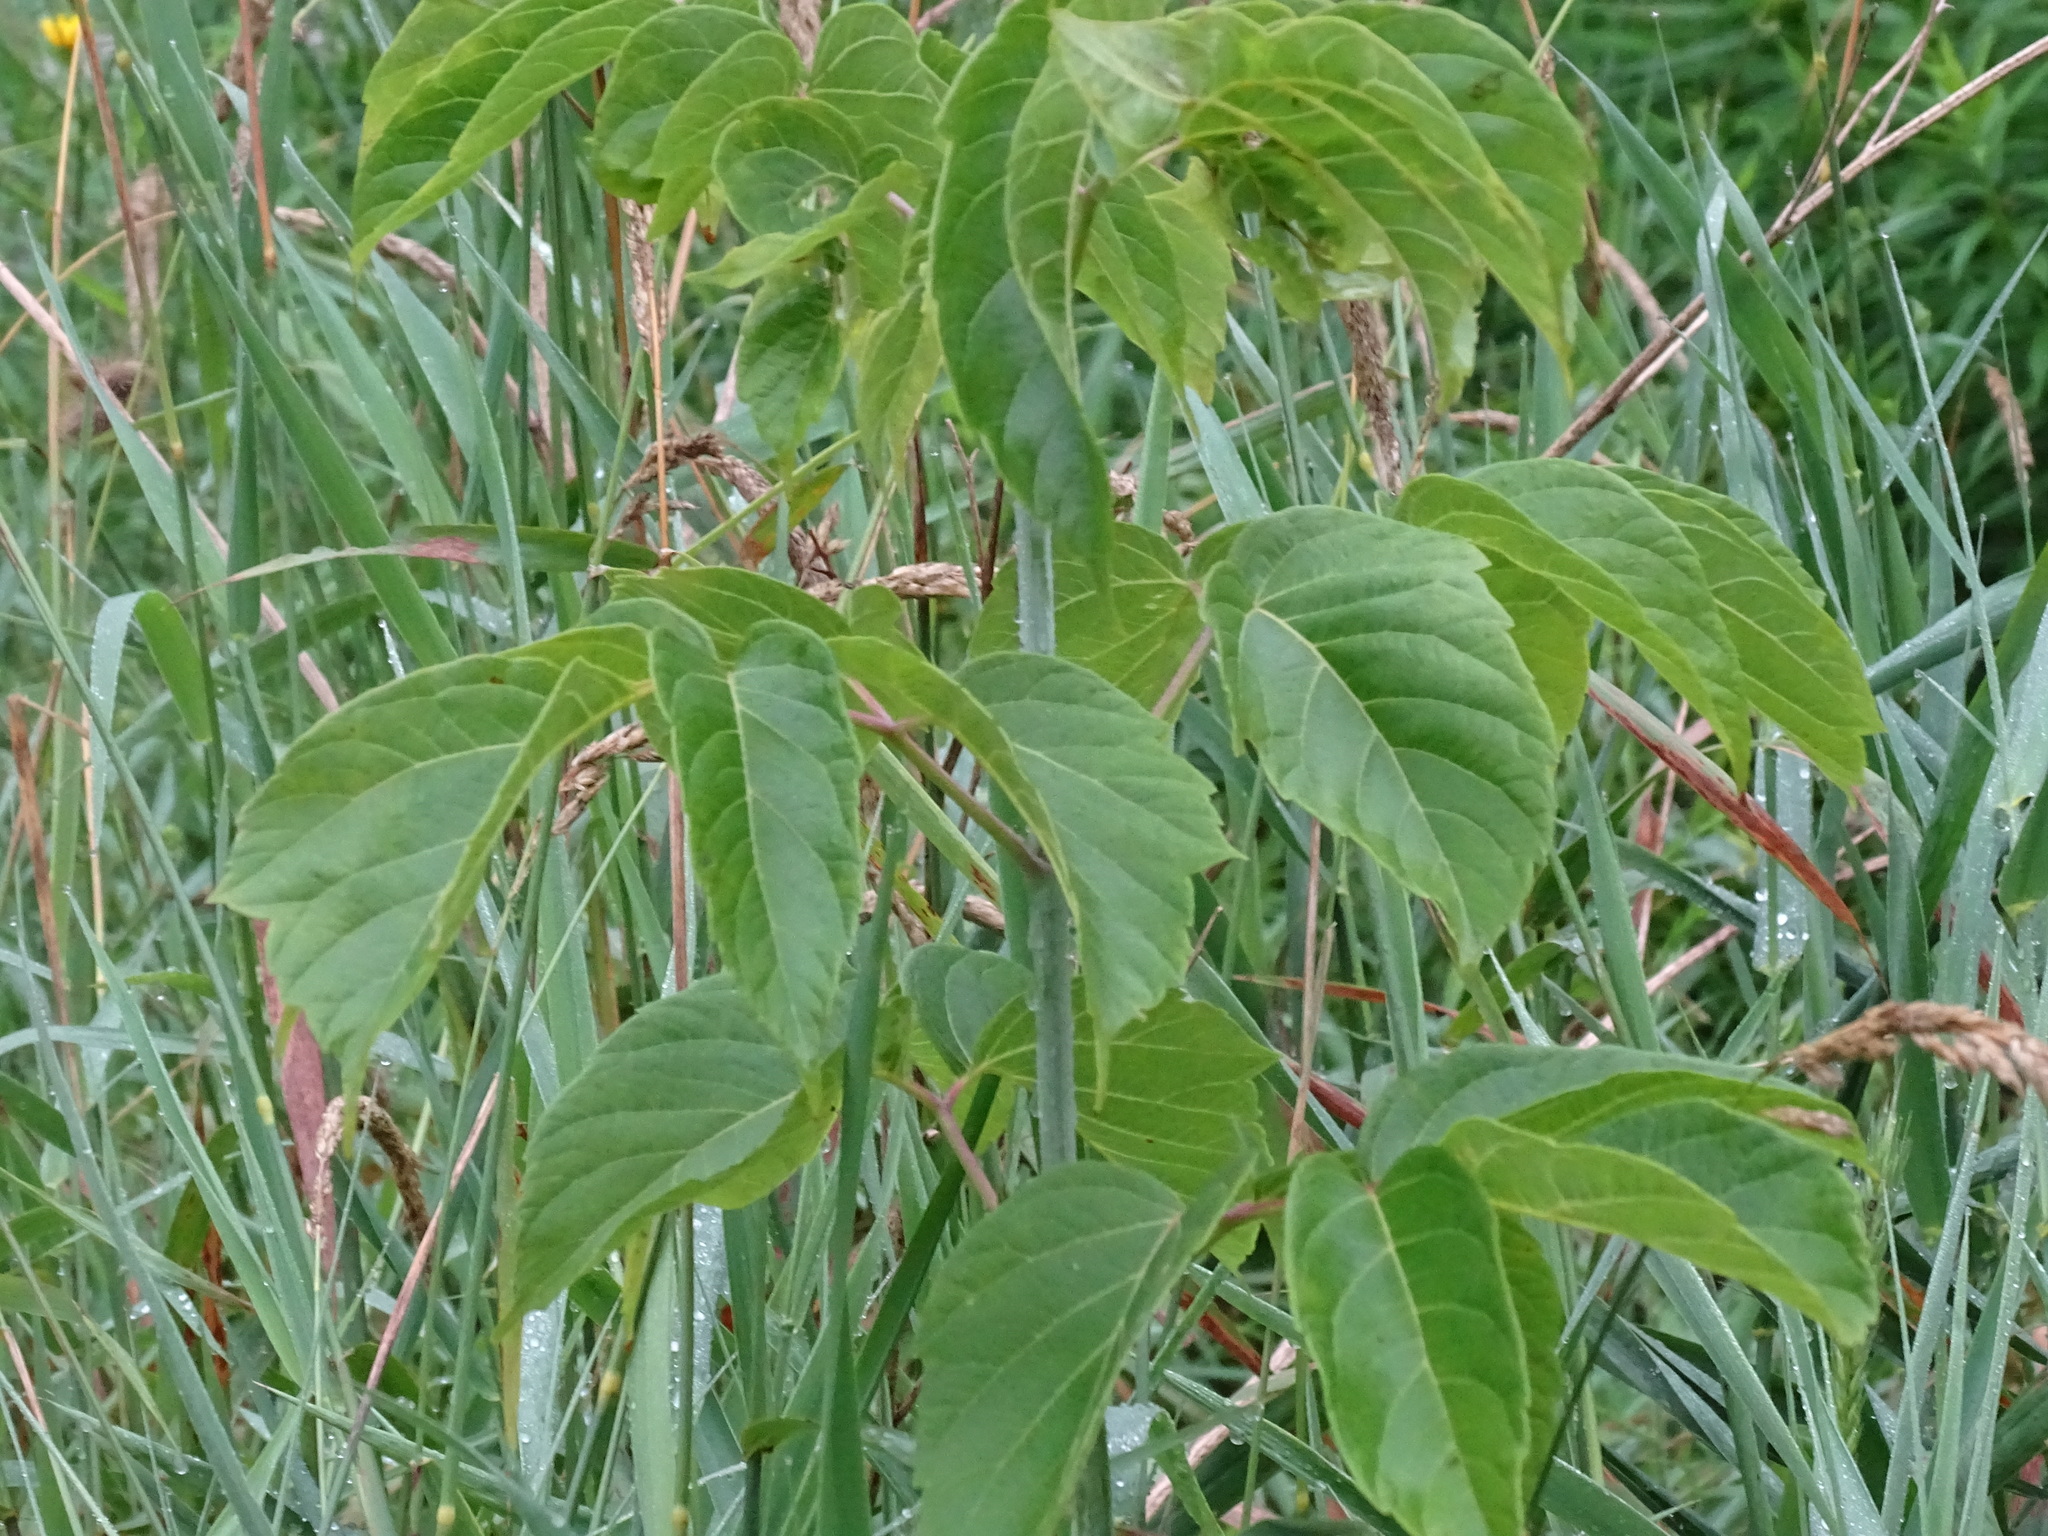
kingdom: Plantae
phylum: Tracheophyta
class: Magnoliopsida
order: Sapindales
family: Sapindaceae
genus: Acer
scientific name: Acer negundo
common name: Ashleaf maple
